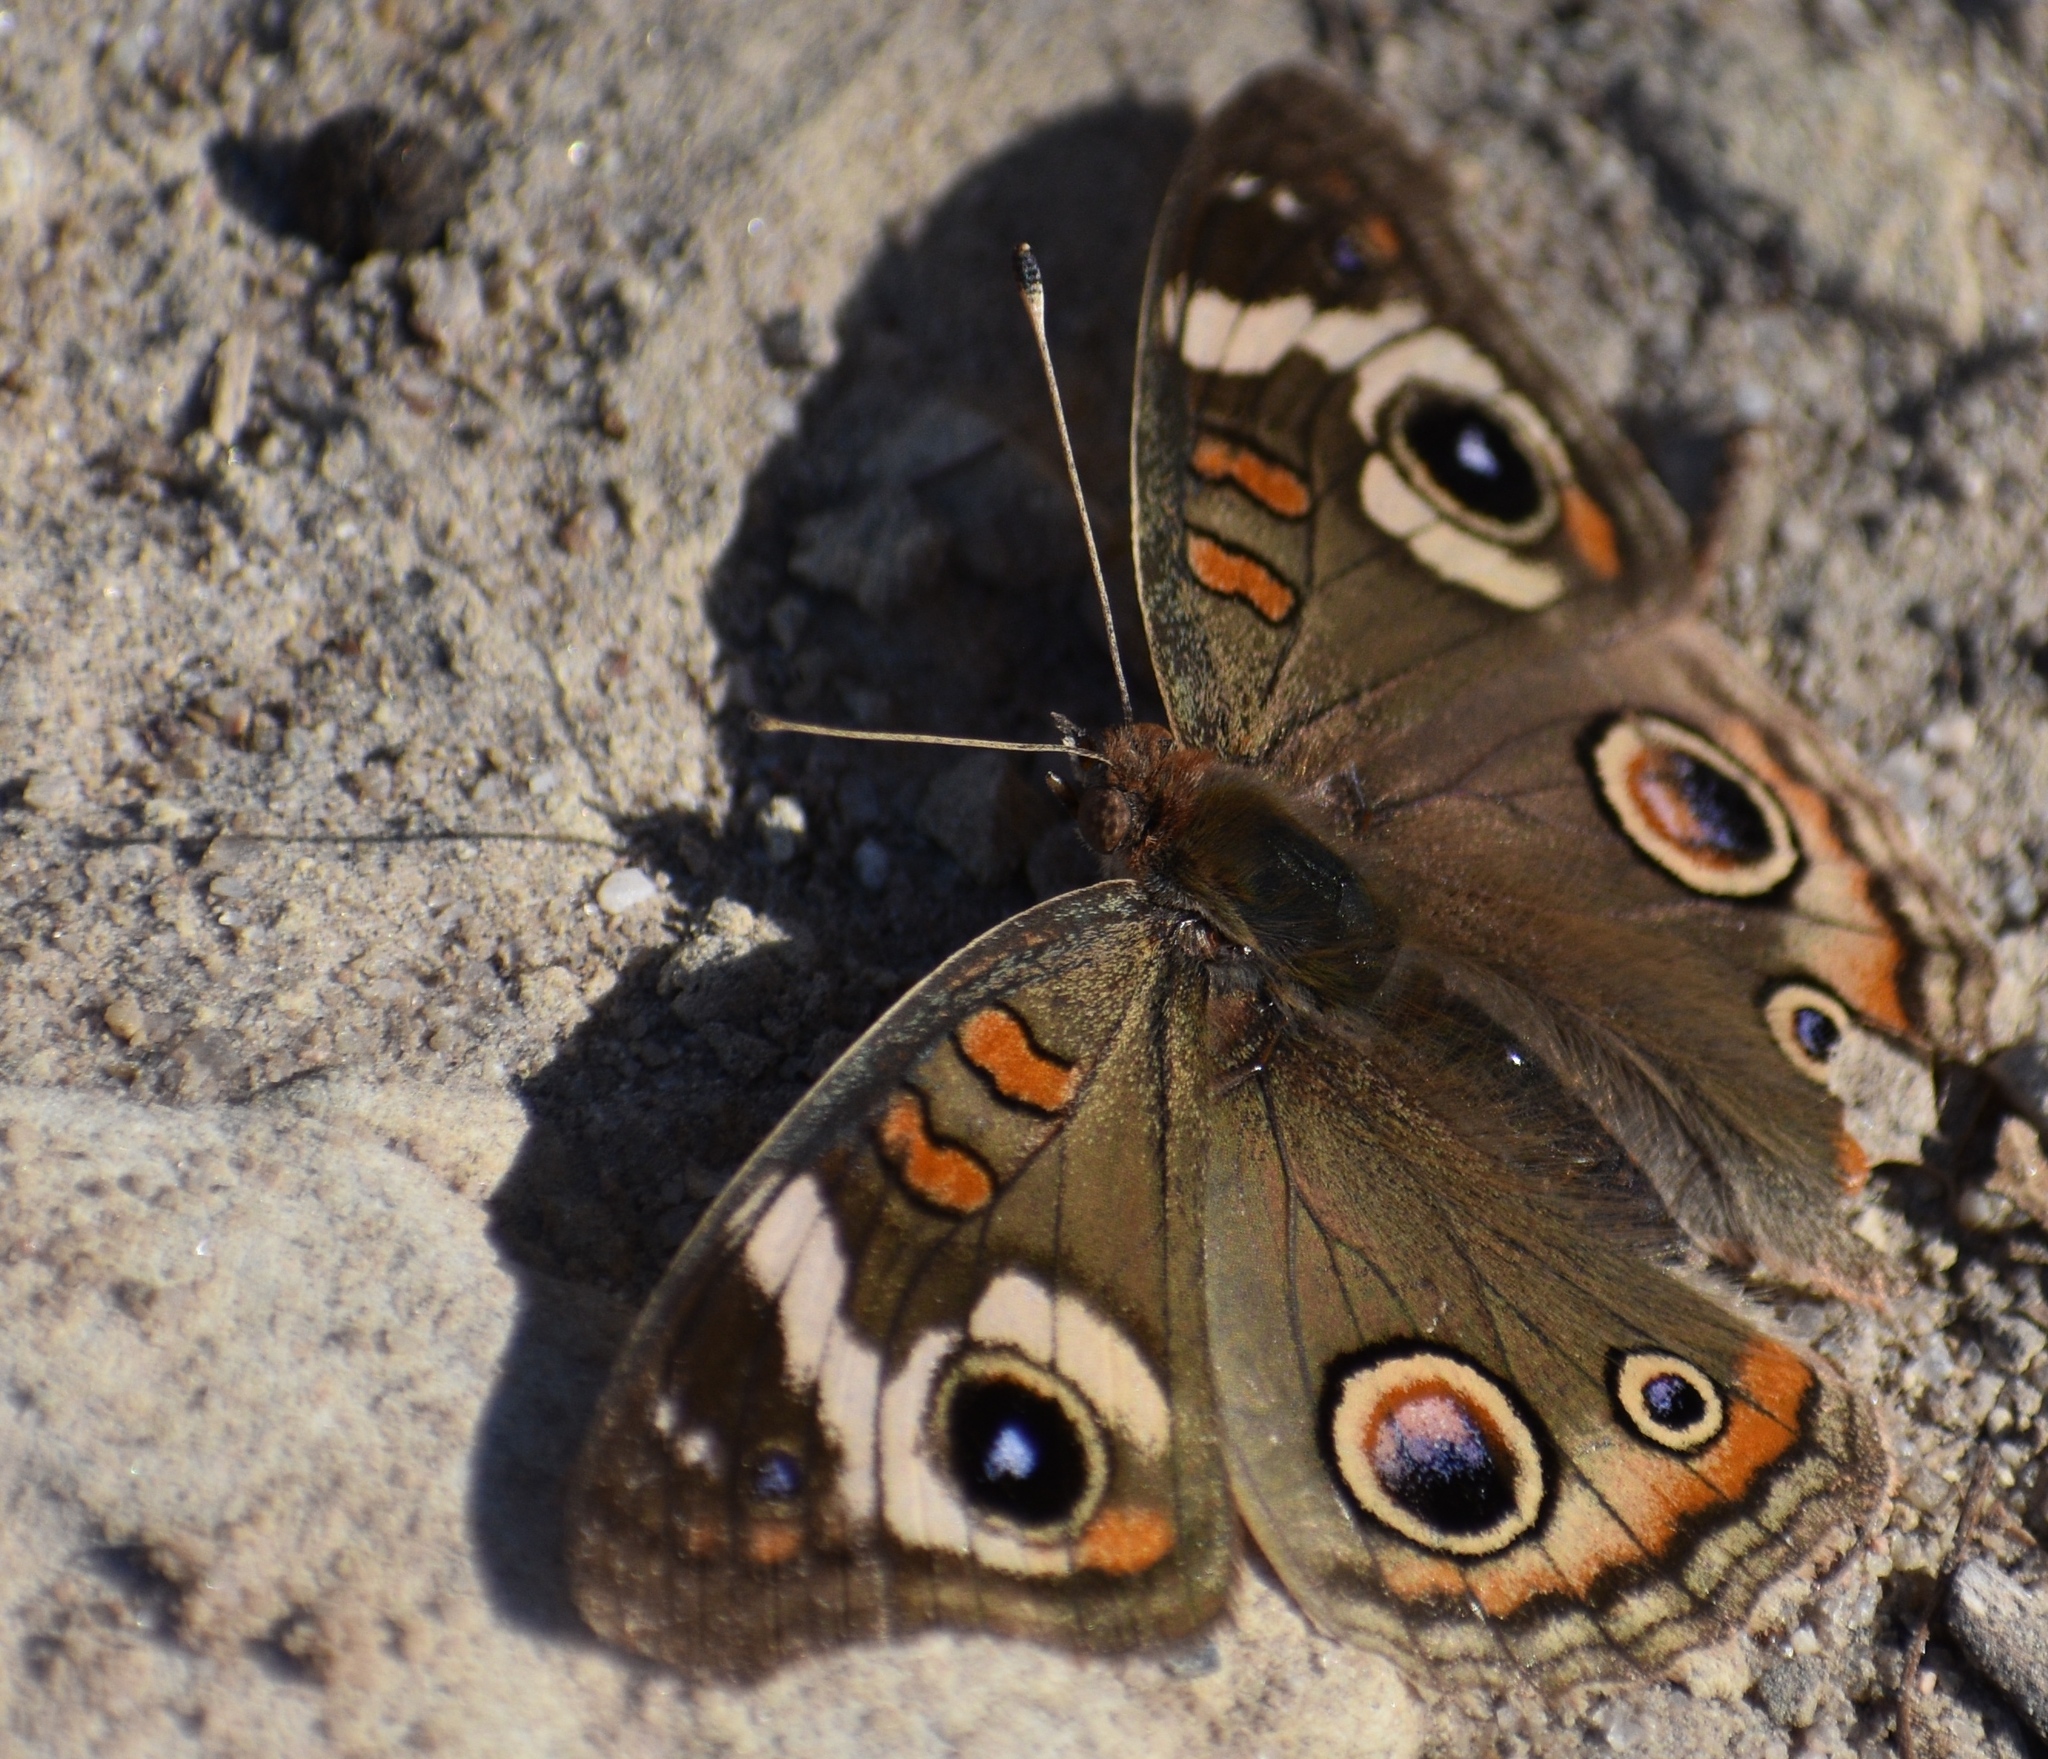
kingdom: Animalia
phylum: Arthropoda
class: Insecta
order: Lepidoptera
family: Nymphalidae
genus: Junonia
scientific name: Junonia grisea
